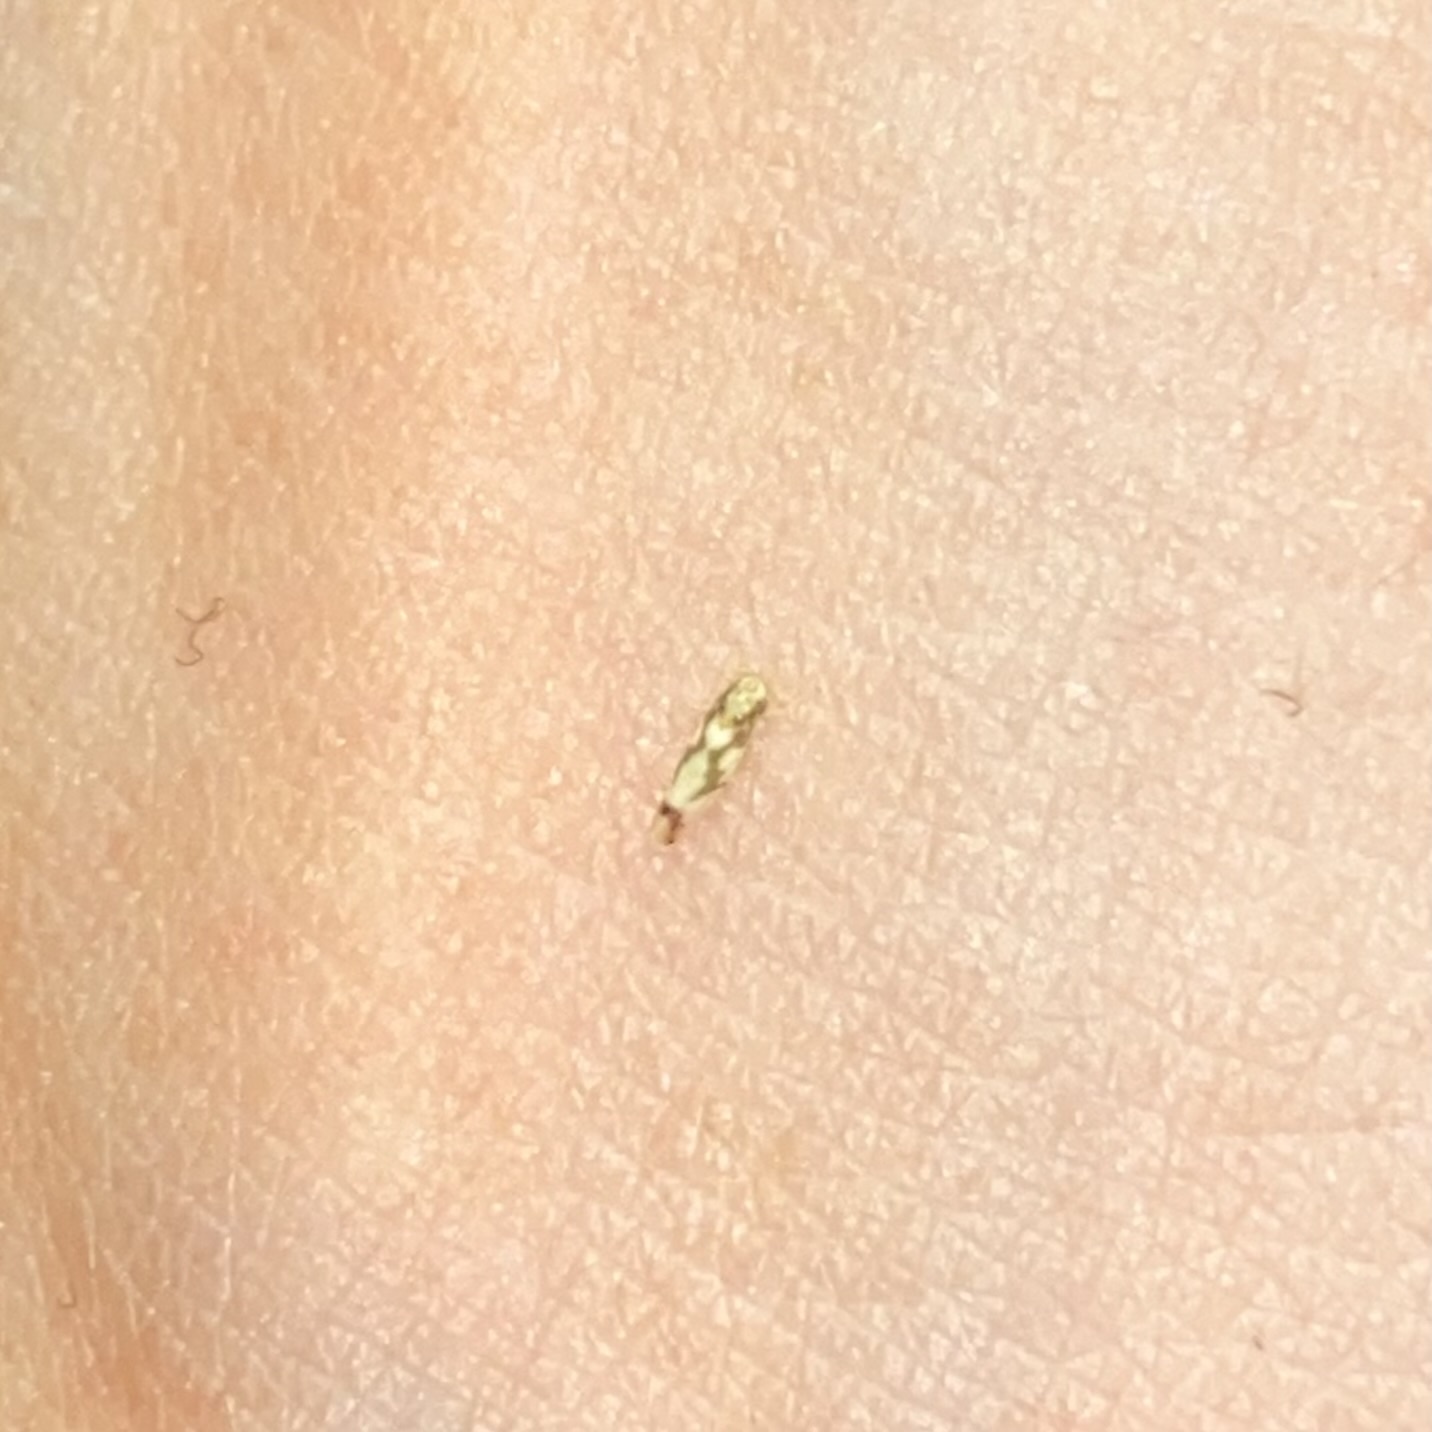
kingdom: Animalia
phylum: Arthropoda
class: Insecta
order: Hemiptera
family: Cicadellidae
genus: Erythroneura
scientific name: Erythroneura ziczac
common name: Virginia creeper leafhopper
